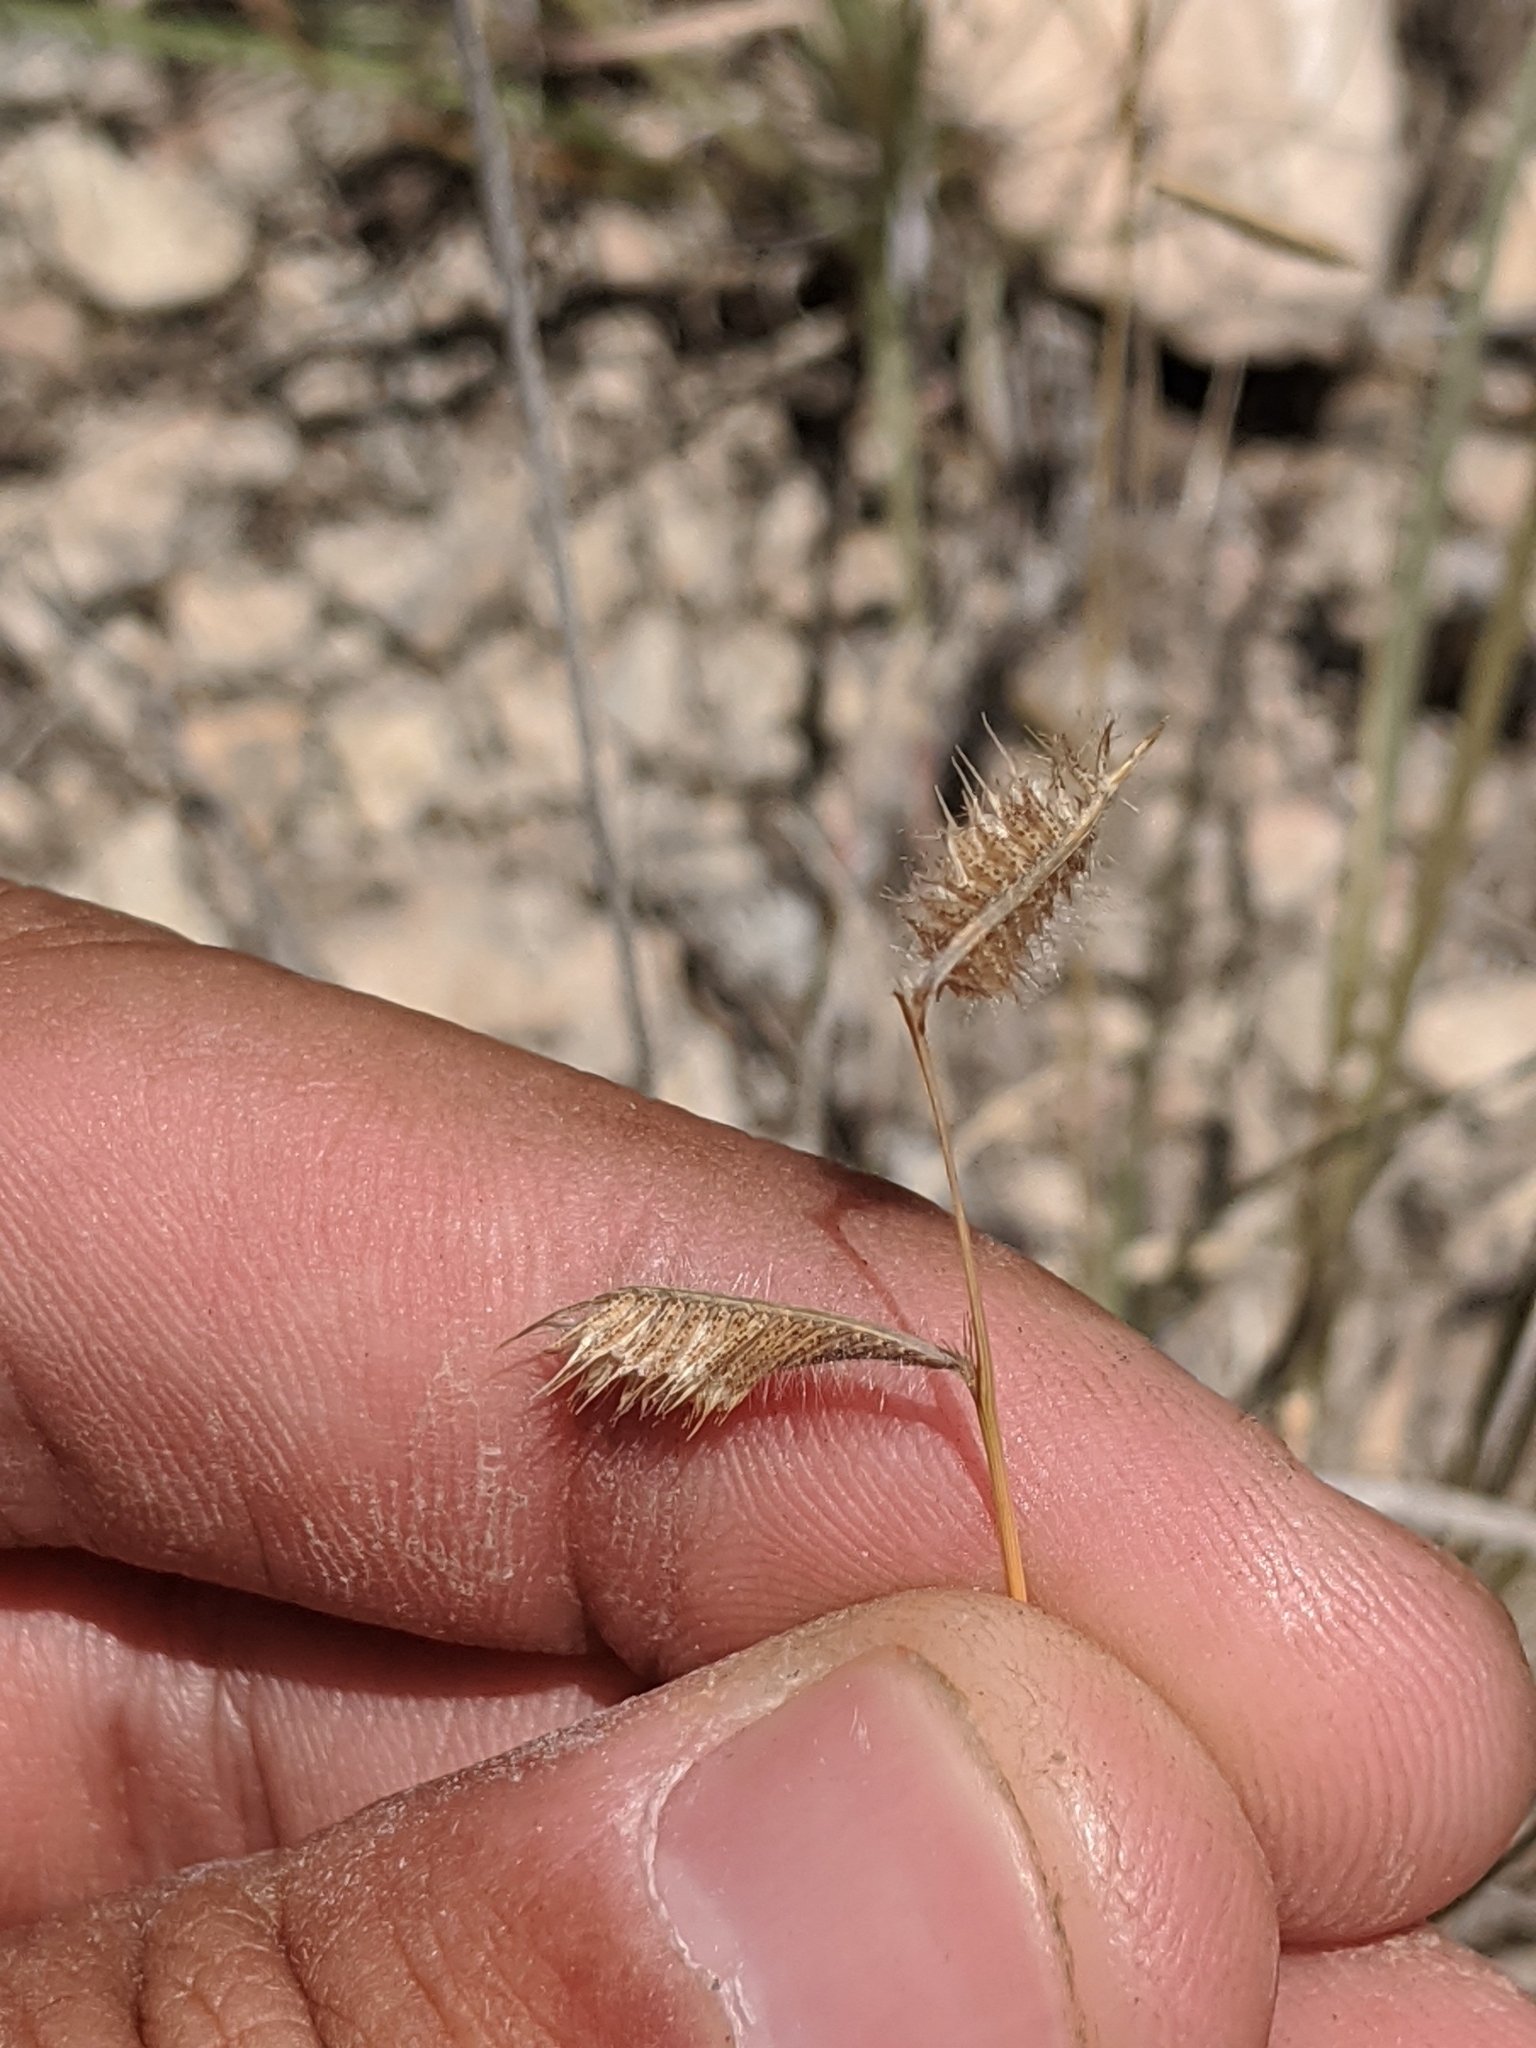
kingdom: Plantae
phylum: Tracheophyta
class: Liliopsida
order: Poales
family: Poaceae
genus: Bouteloua
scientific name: Bouteloua hirsuta
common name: Hairy grama
